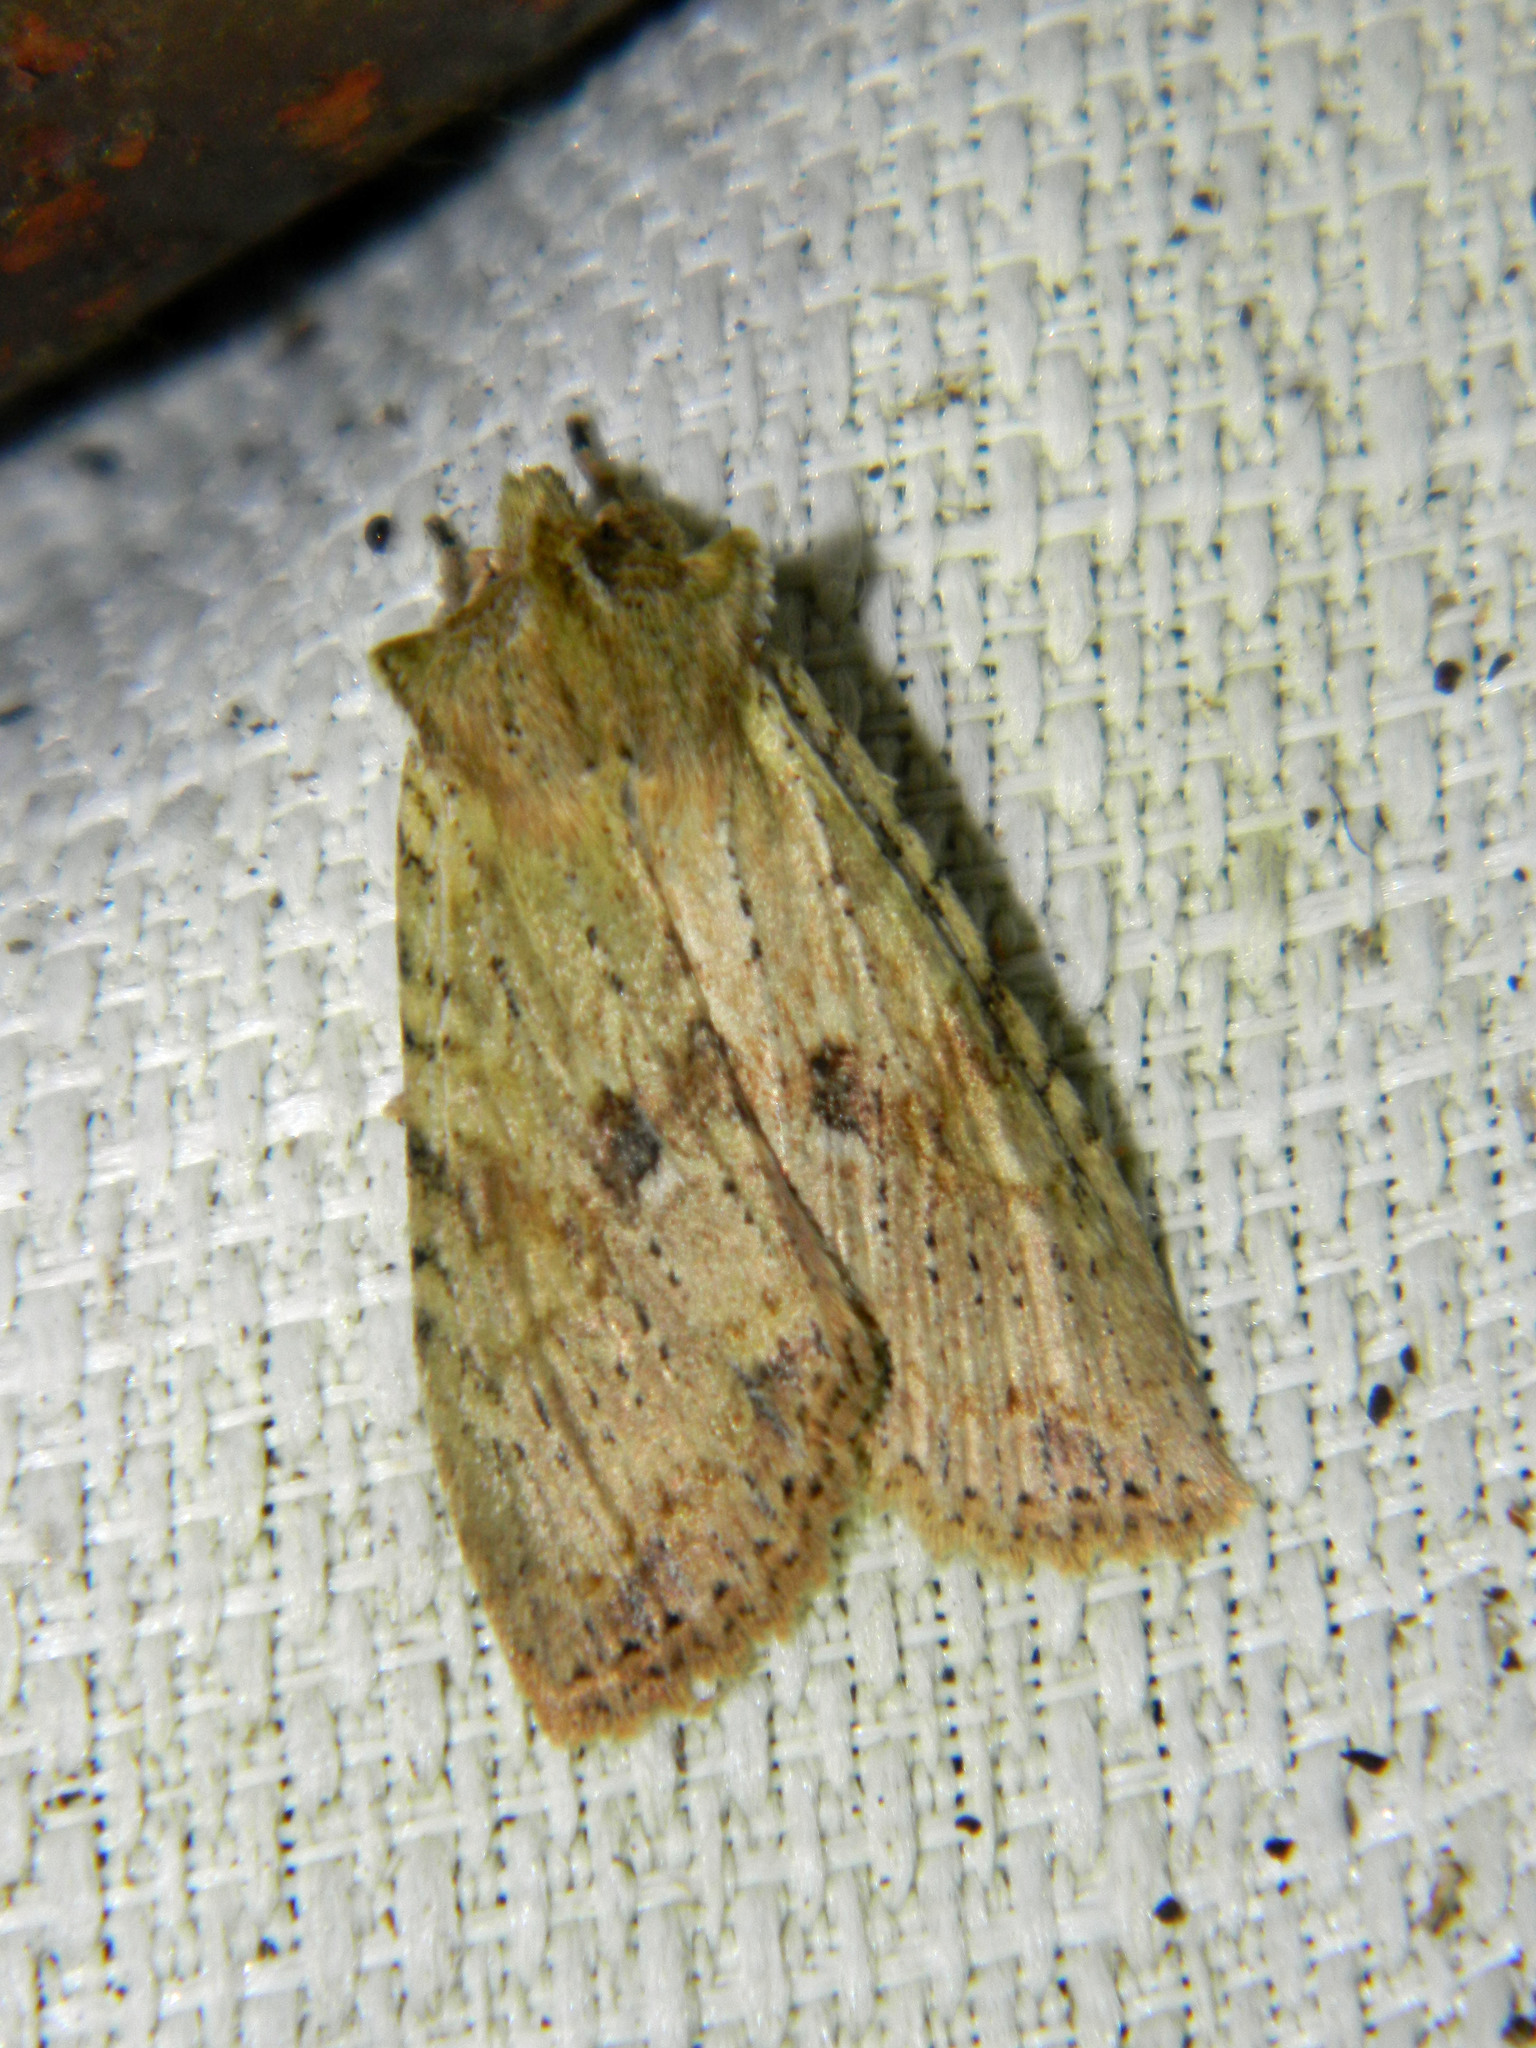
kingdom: Animalia
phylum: Arthropoda
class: Insecta
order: Lepidoptera
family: Noctuidae
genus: Lithophane
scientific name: Lithophane innominata
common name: Nameless pinion moth
